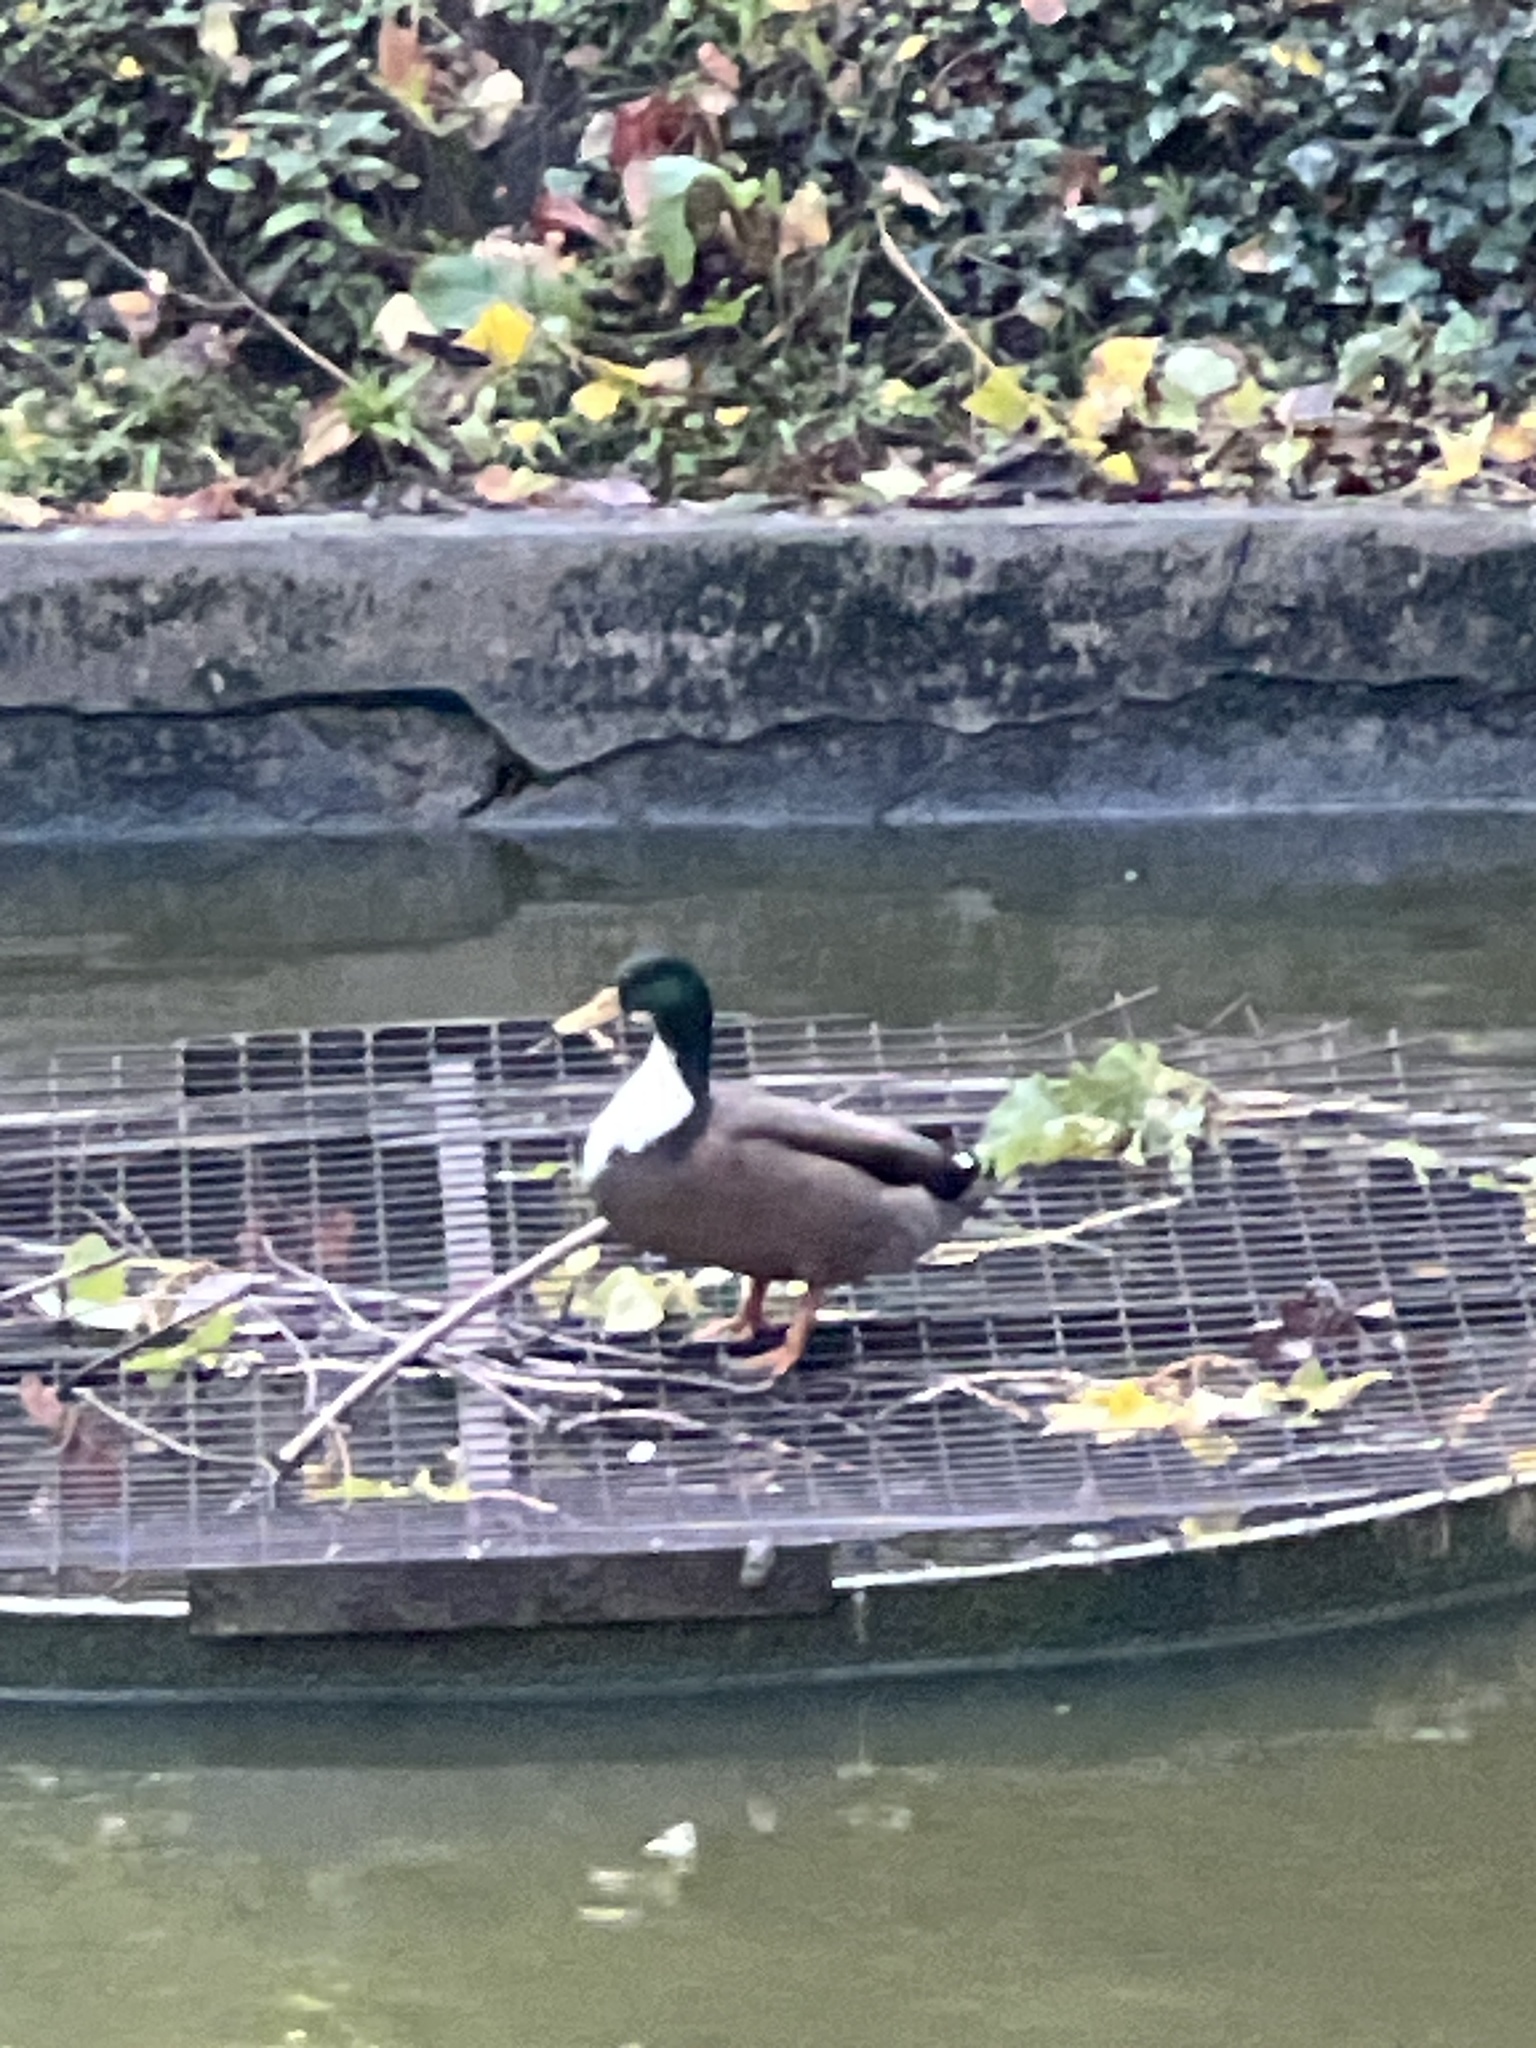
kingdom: Animalia
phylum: Chordata
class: Aves
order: Anseriformes
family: Anatidae
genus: Anas
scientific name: Anas platyrhynchos
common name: Mallard
